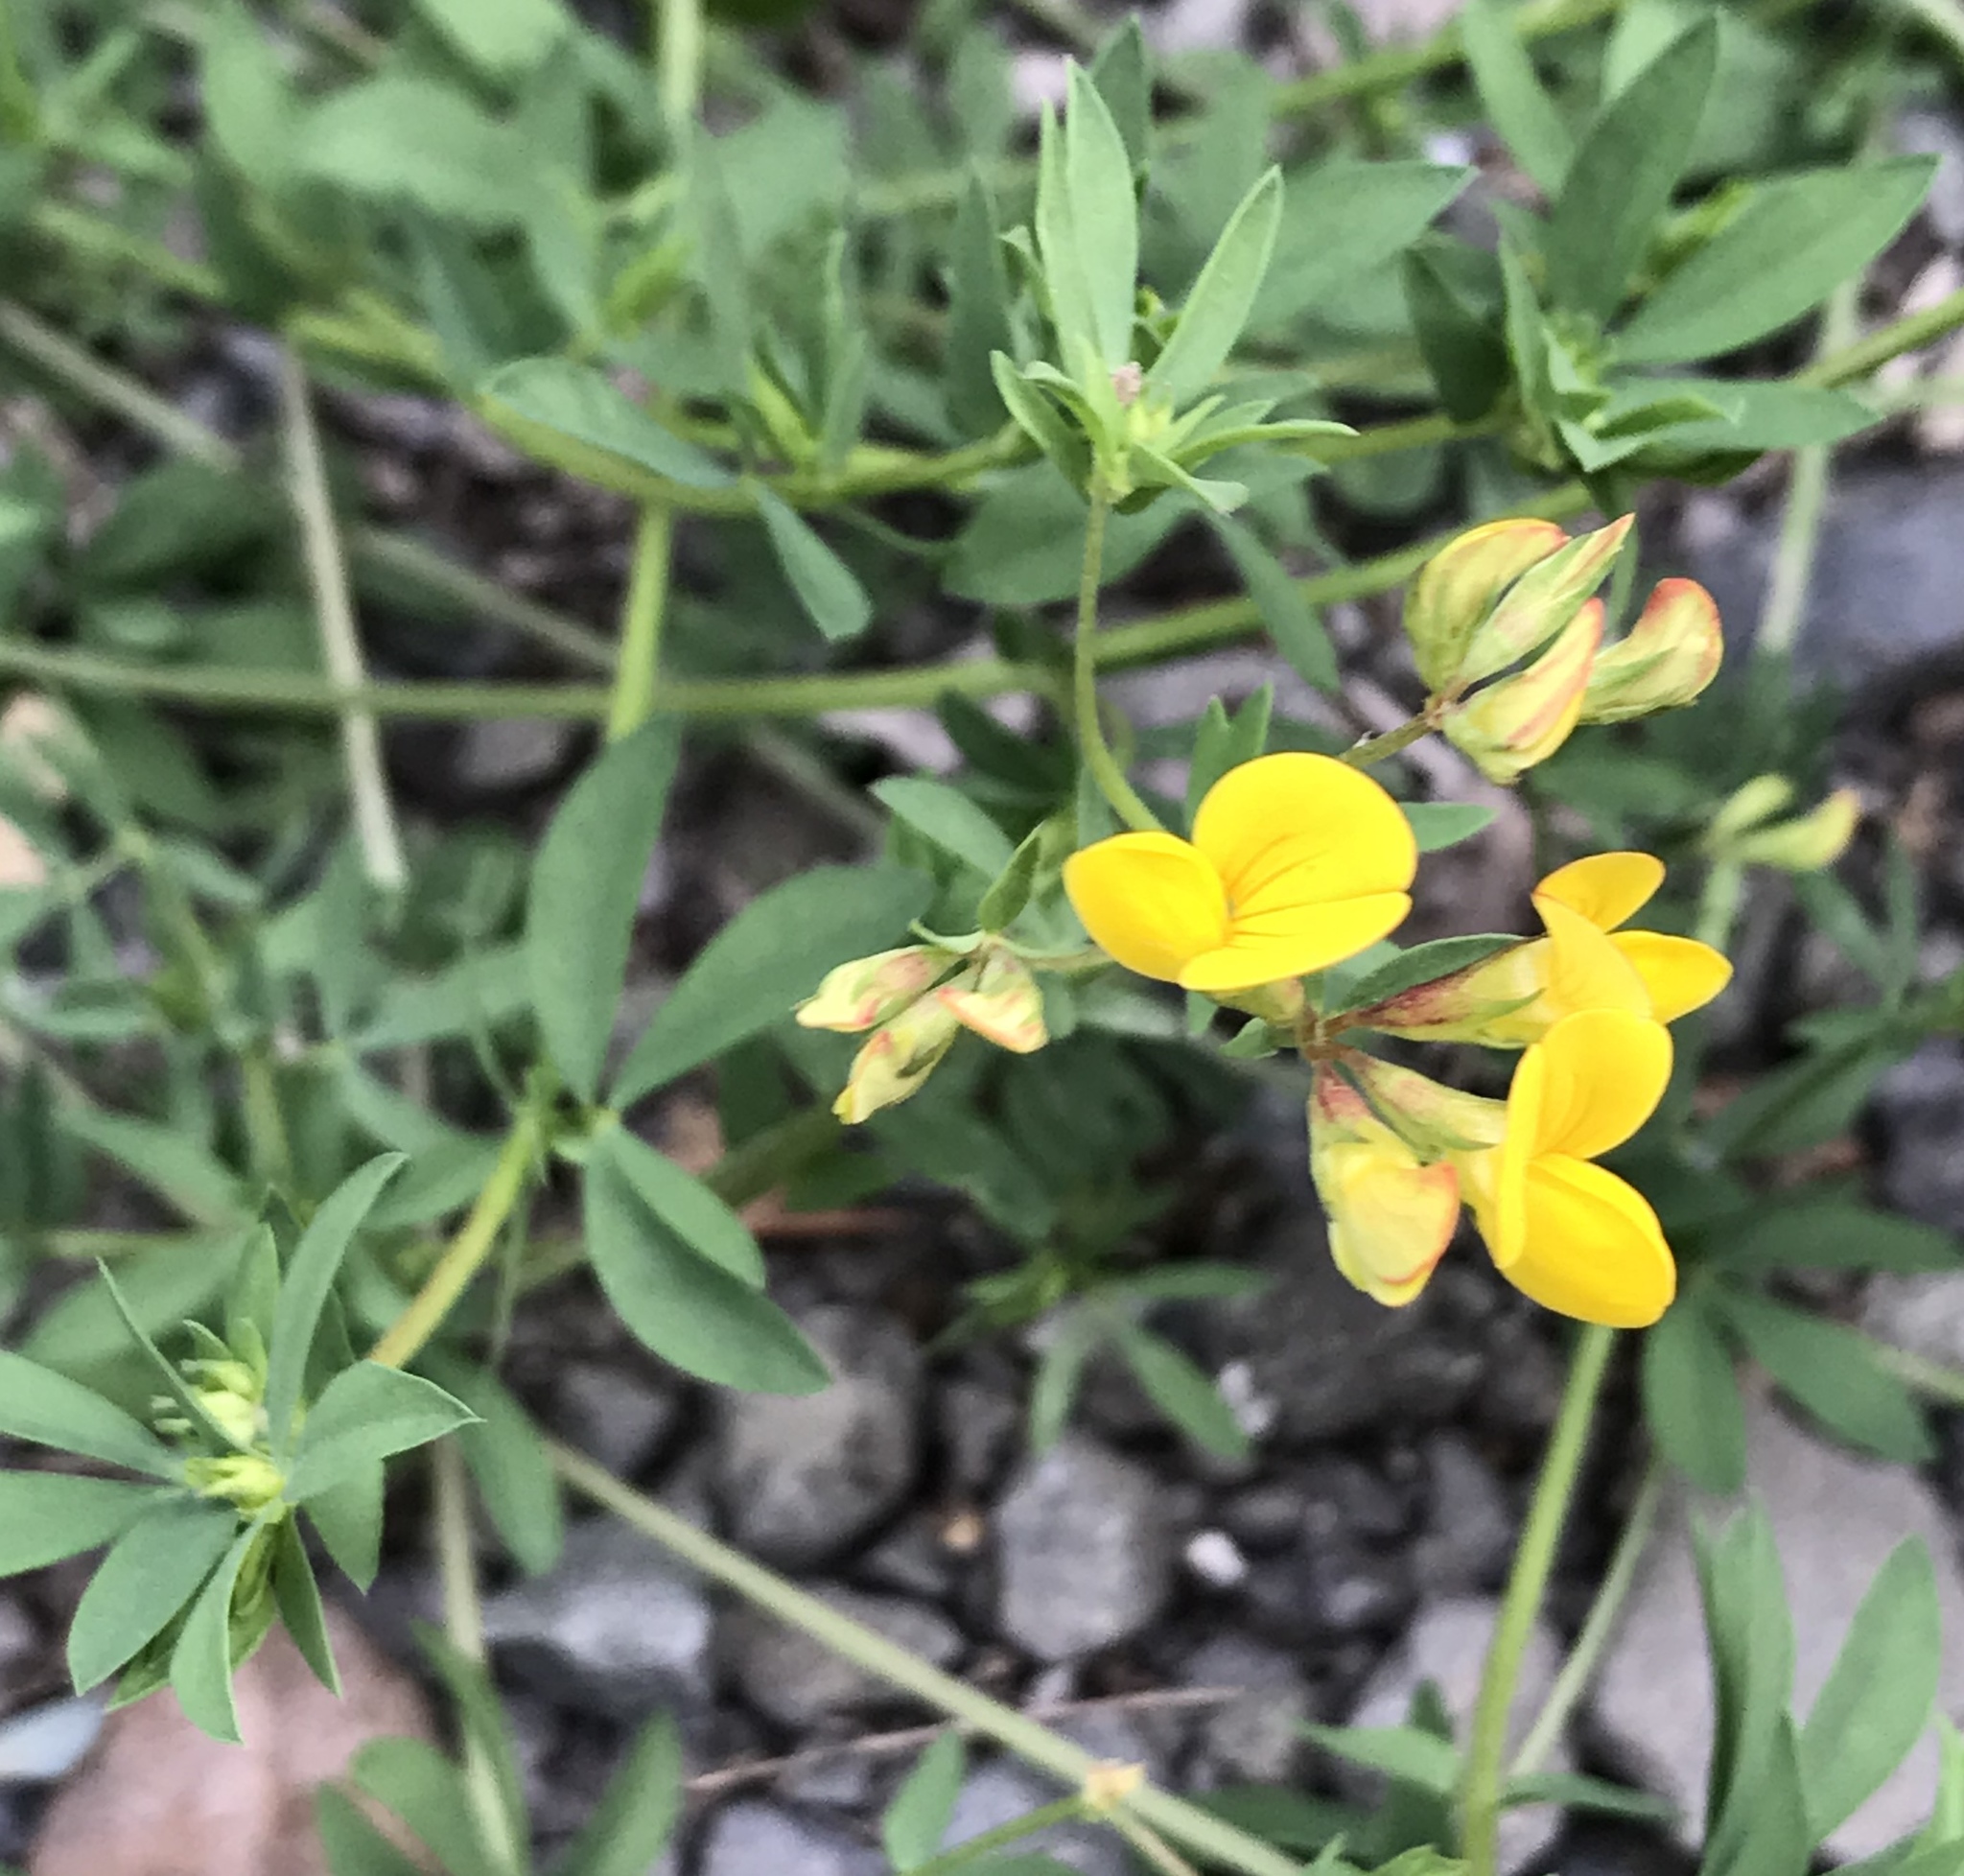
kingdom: Plantae
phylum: Tracheophyta
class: Magnoliopsida
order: Fabales
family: Fabaceae
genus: Lotus
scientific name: Lotus corniculatus
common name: Common bird's-foot-trefoil
